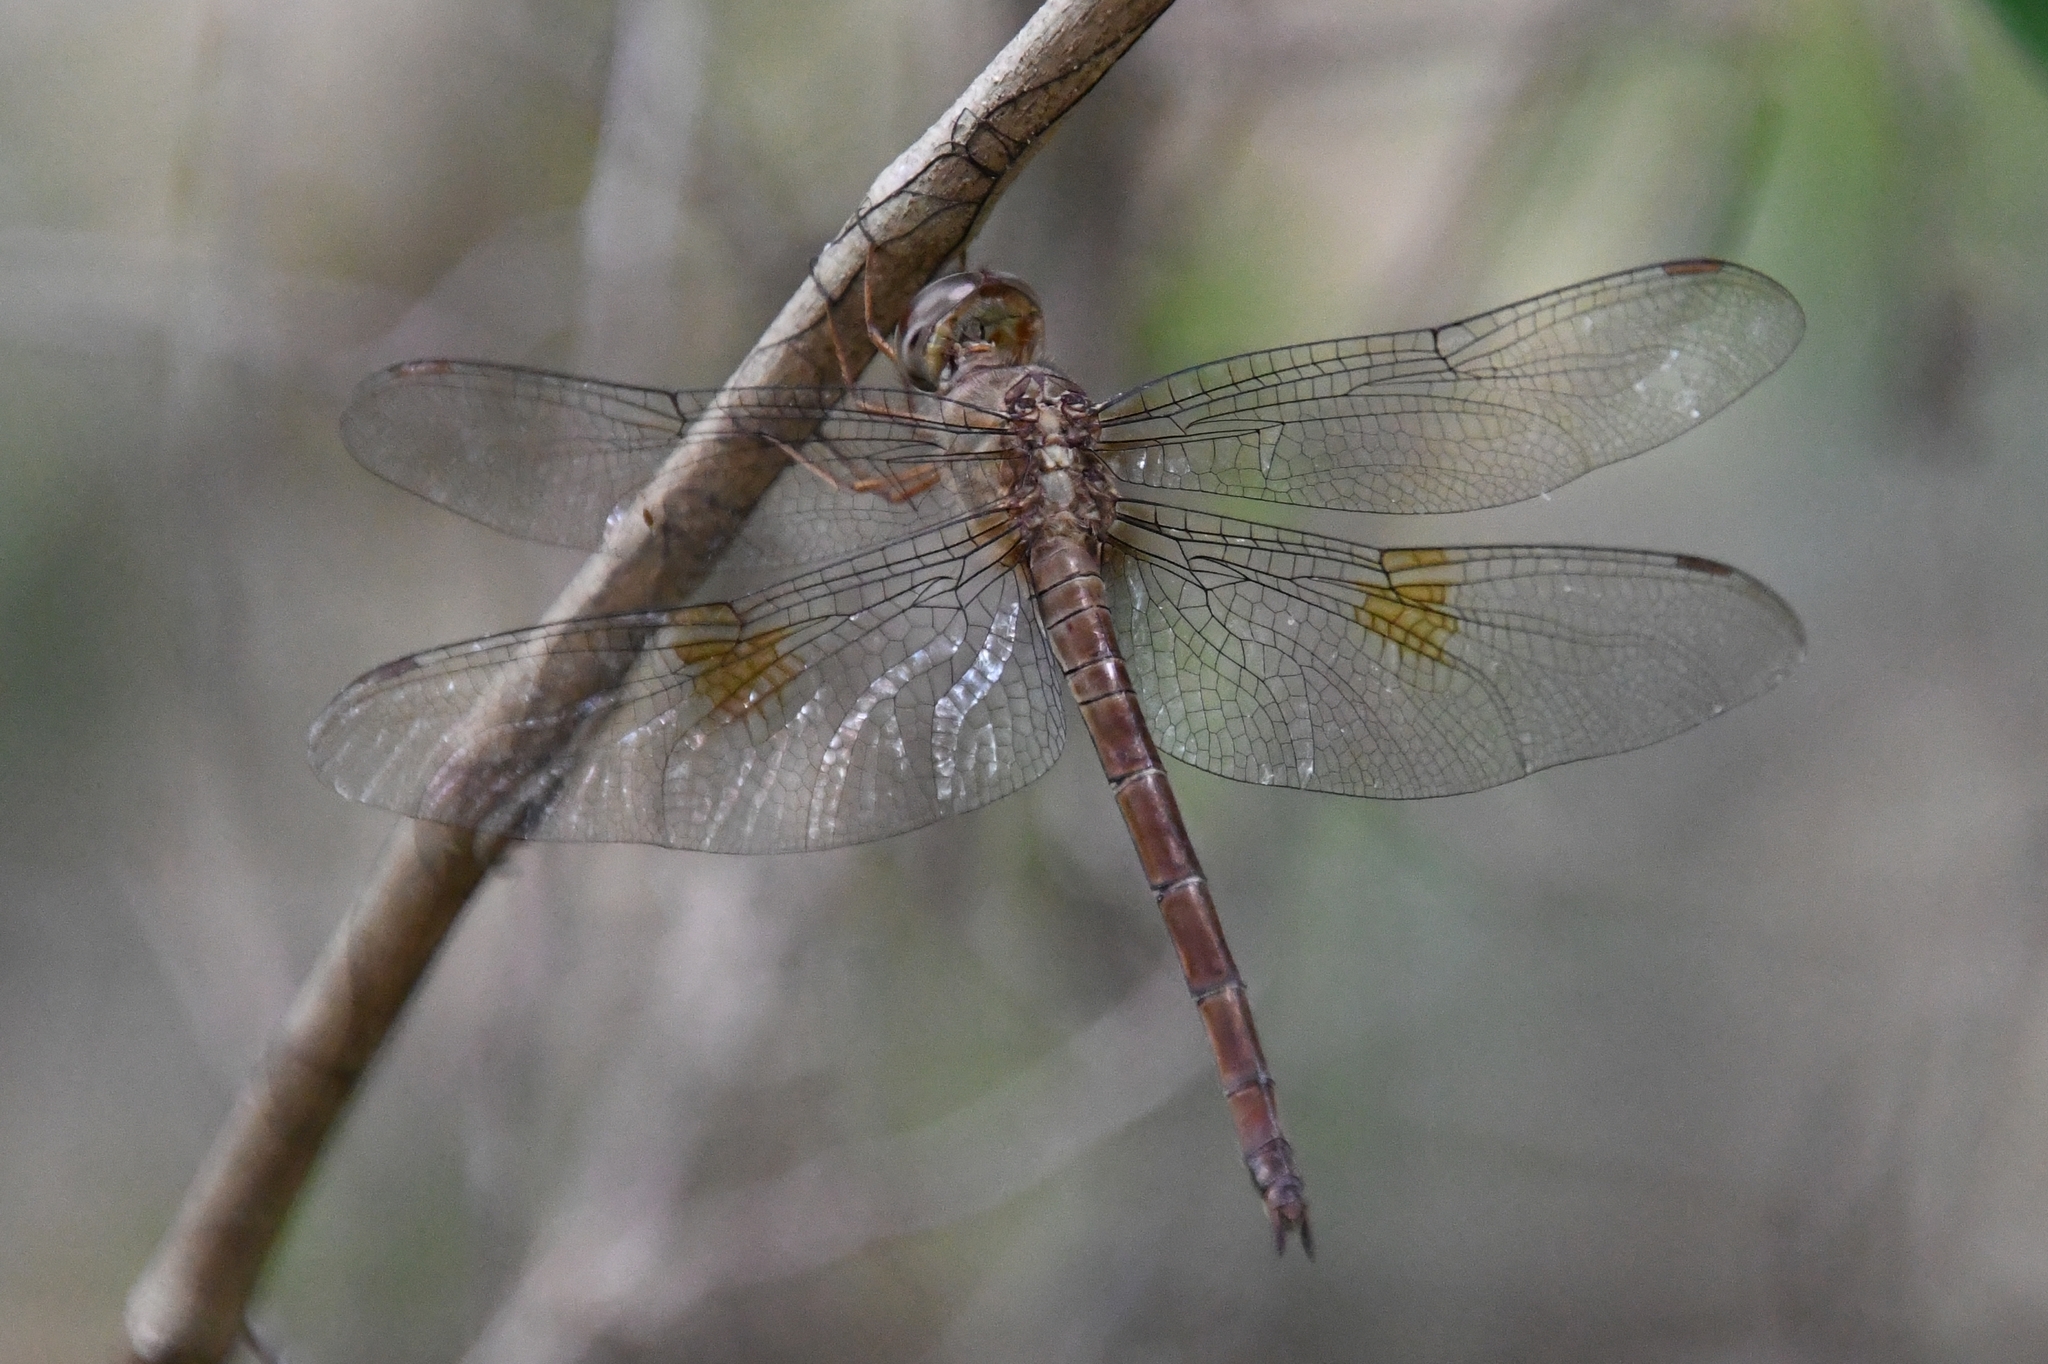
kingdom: Animalia
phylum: Arthropoda
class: Insecta
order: Odonata
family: Libellulidae
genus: Tholymis
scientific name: Tholymis citrina
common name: Evening skimmer
